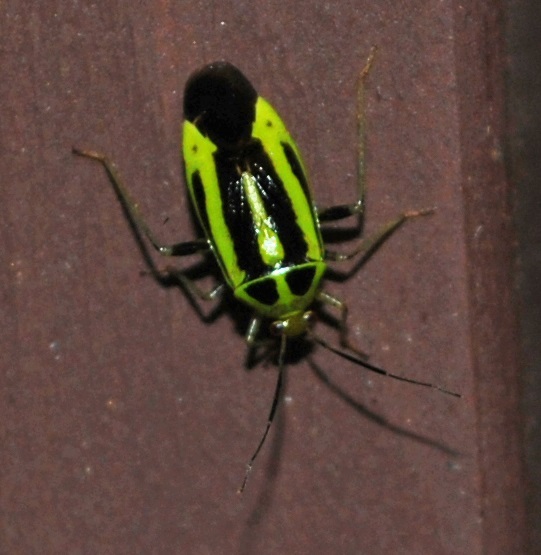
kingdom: Animalia
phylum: Arthropoda
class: Insecta
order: Hemiptera
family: Miridae
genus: Poecilocapsus
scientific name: Poecilocapsus lineatus
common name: Four-lined plant bug
